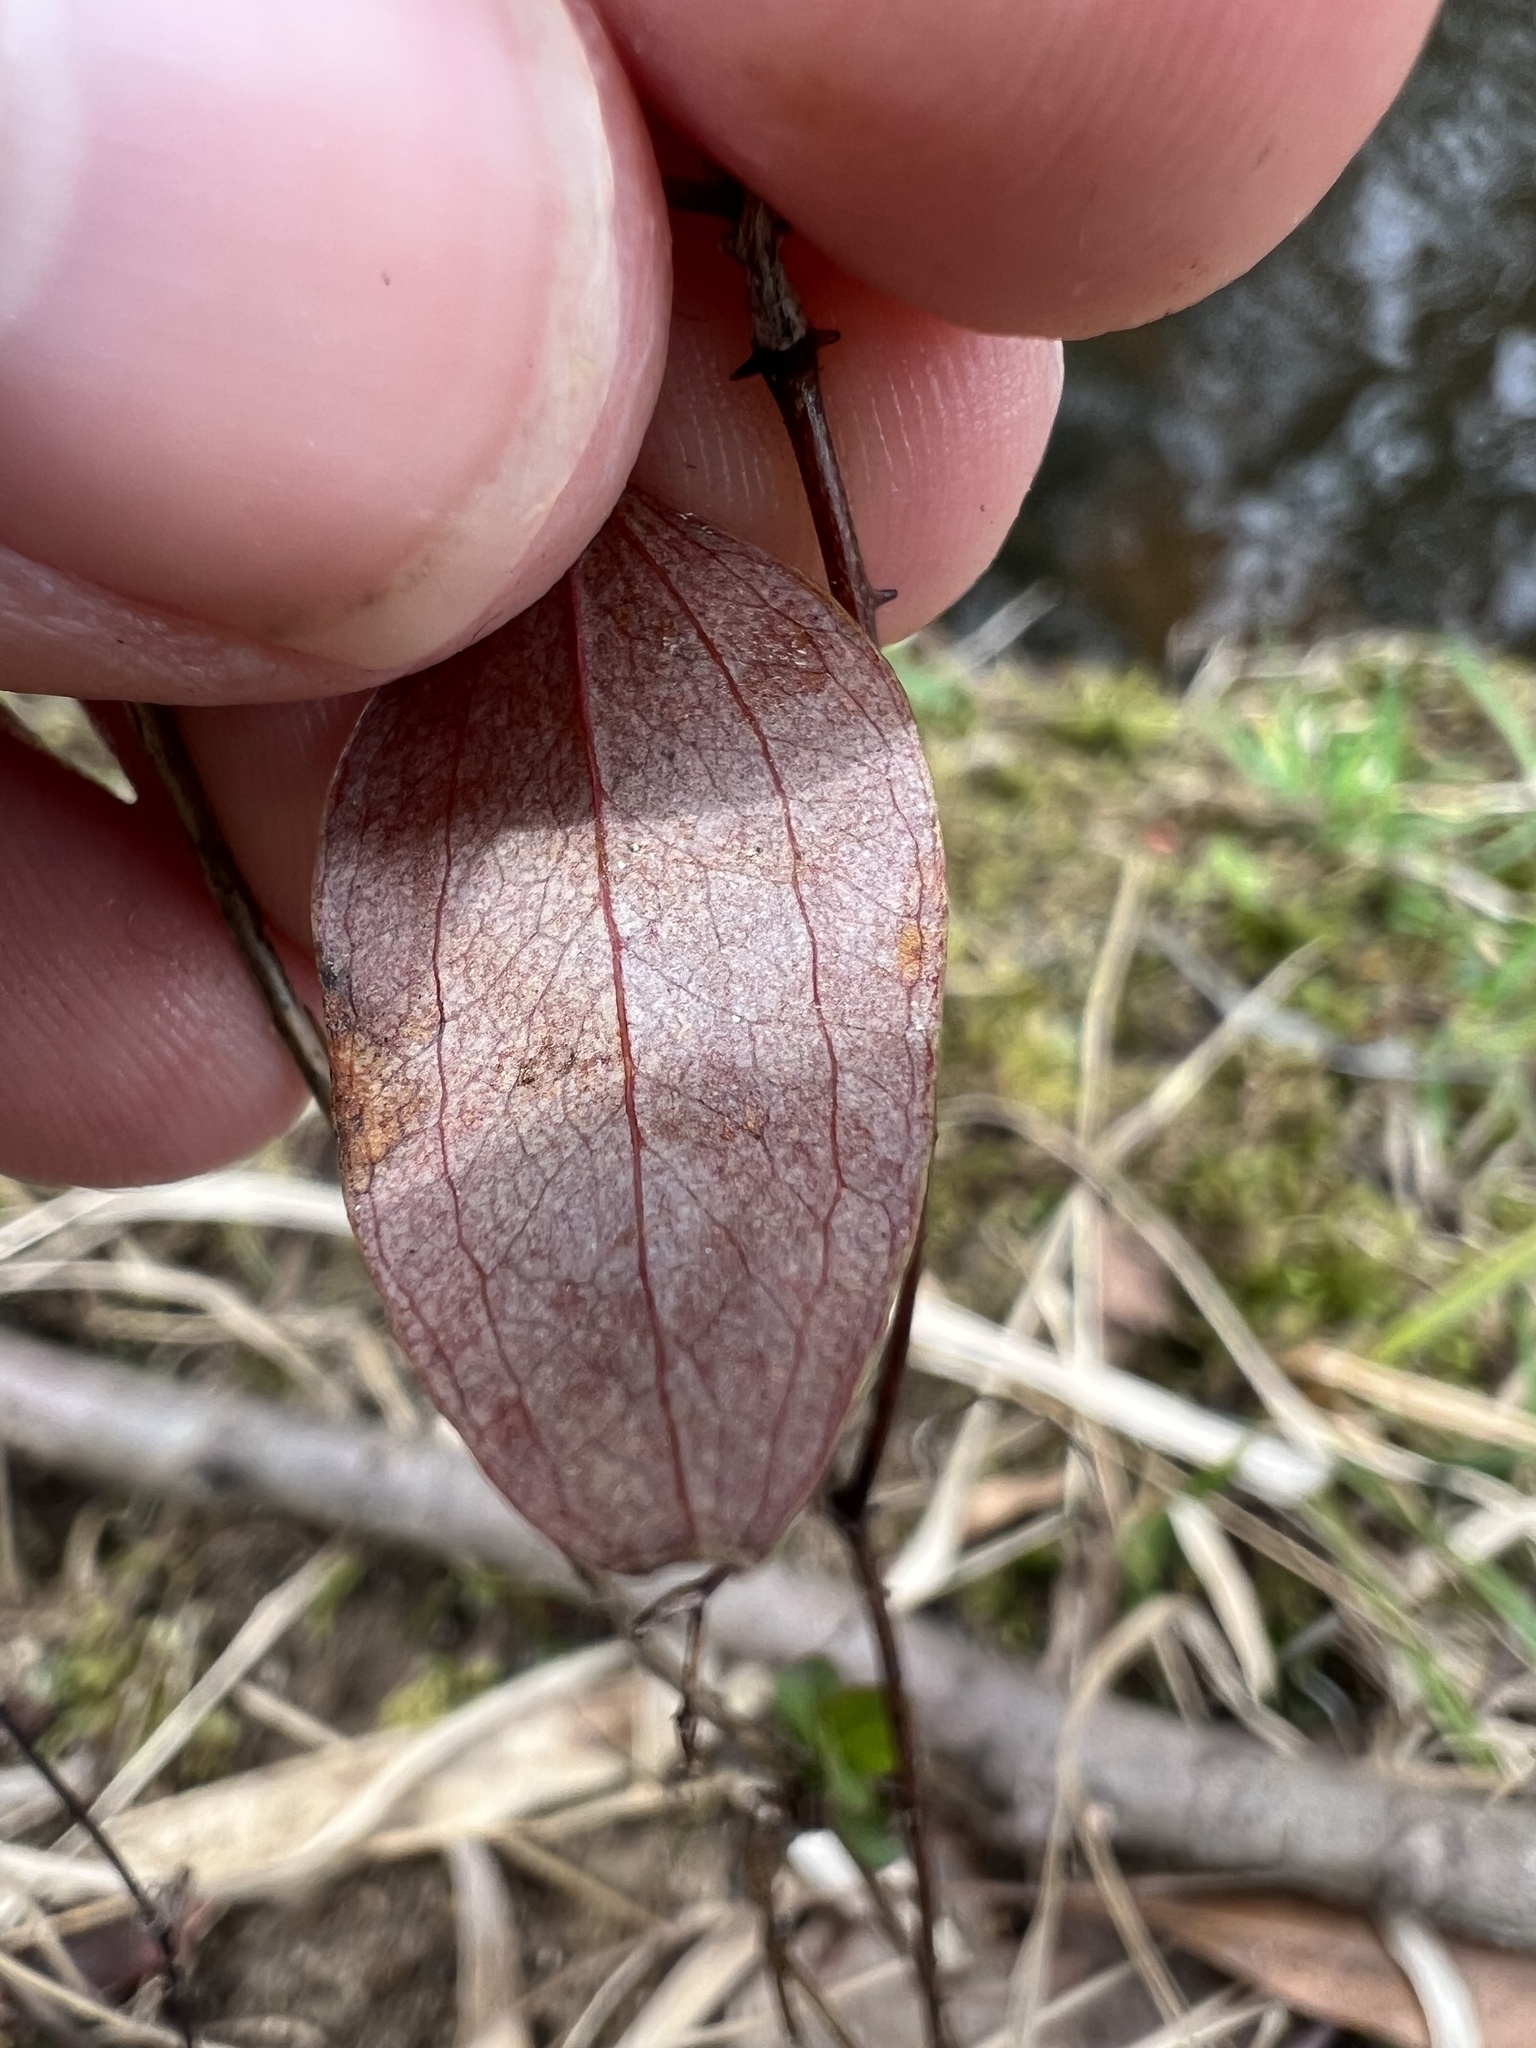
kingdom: Plantae
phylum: Tracheophyta
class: Liliopsida
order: Liliales
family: Smilacaceae
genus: Smilax
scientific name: Smilax glauca
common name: Cat greenbrier
